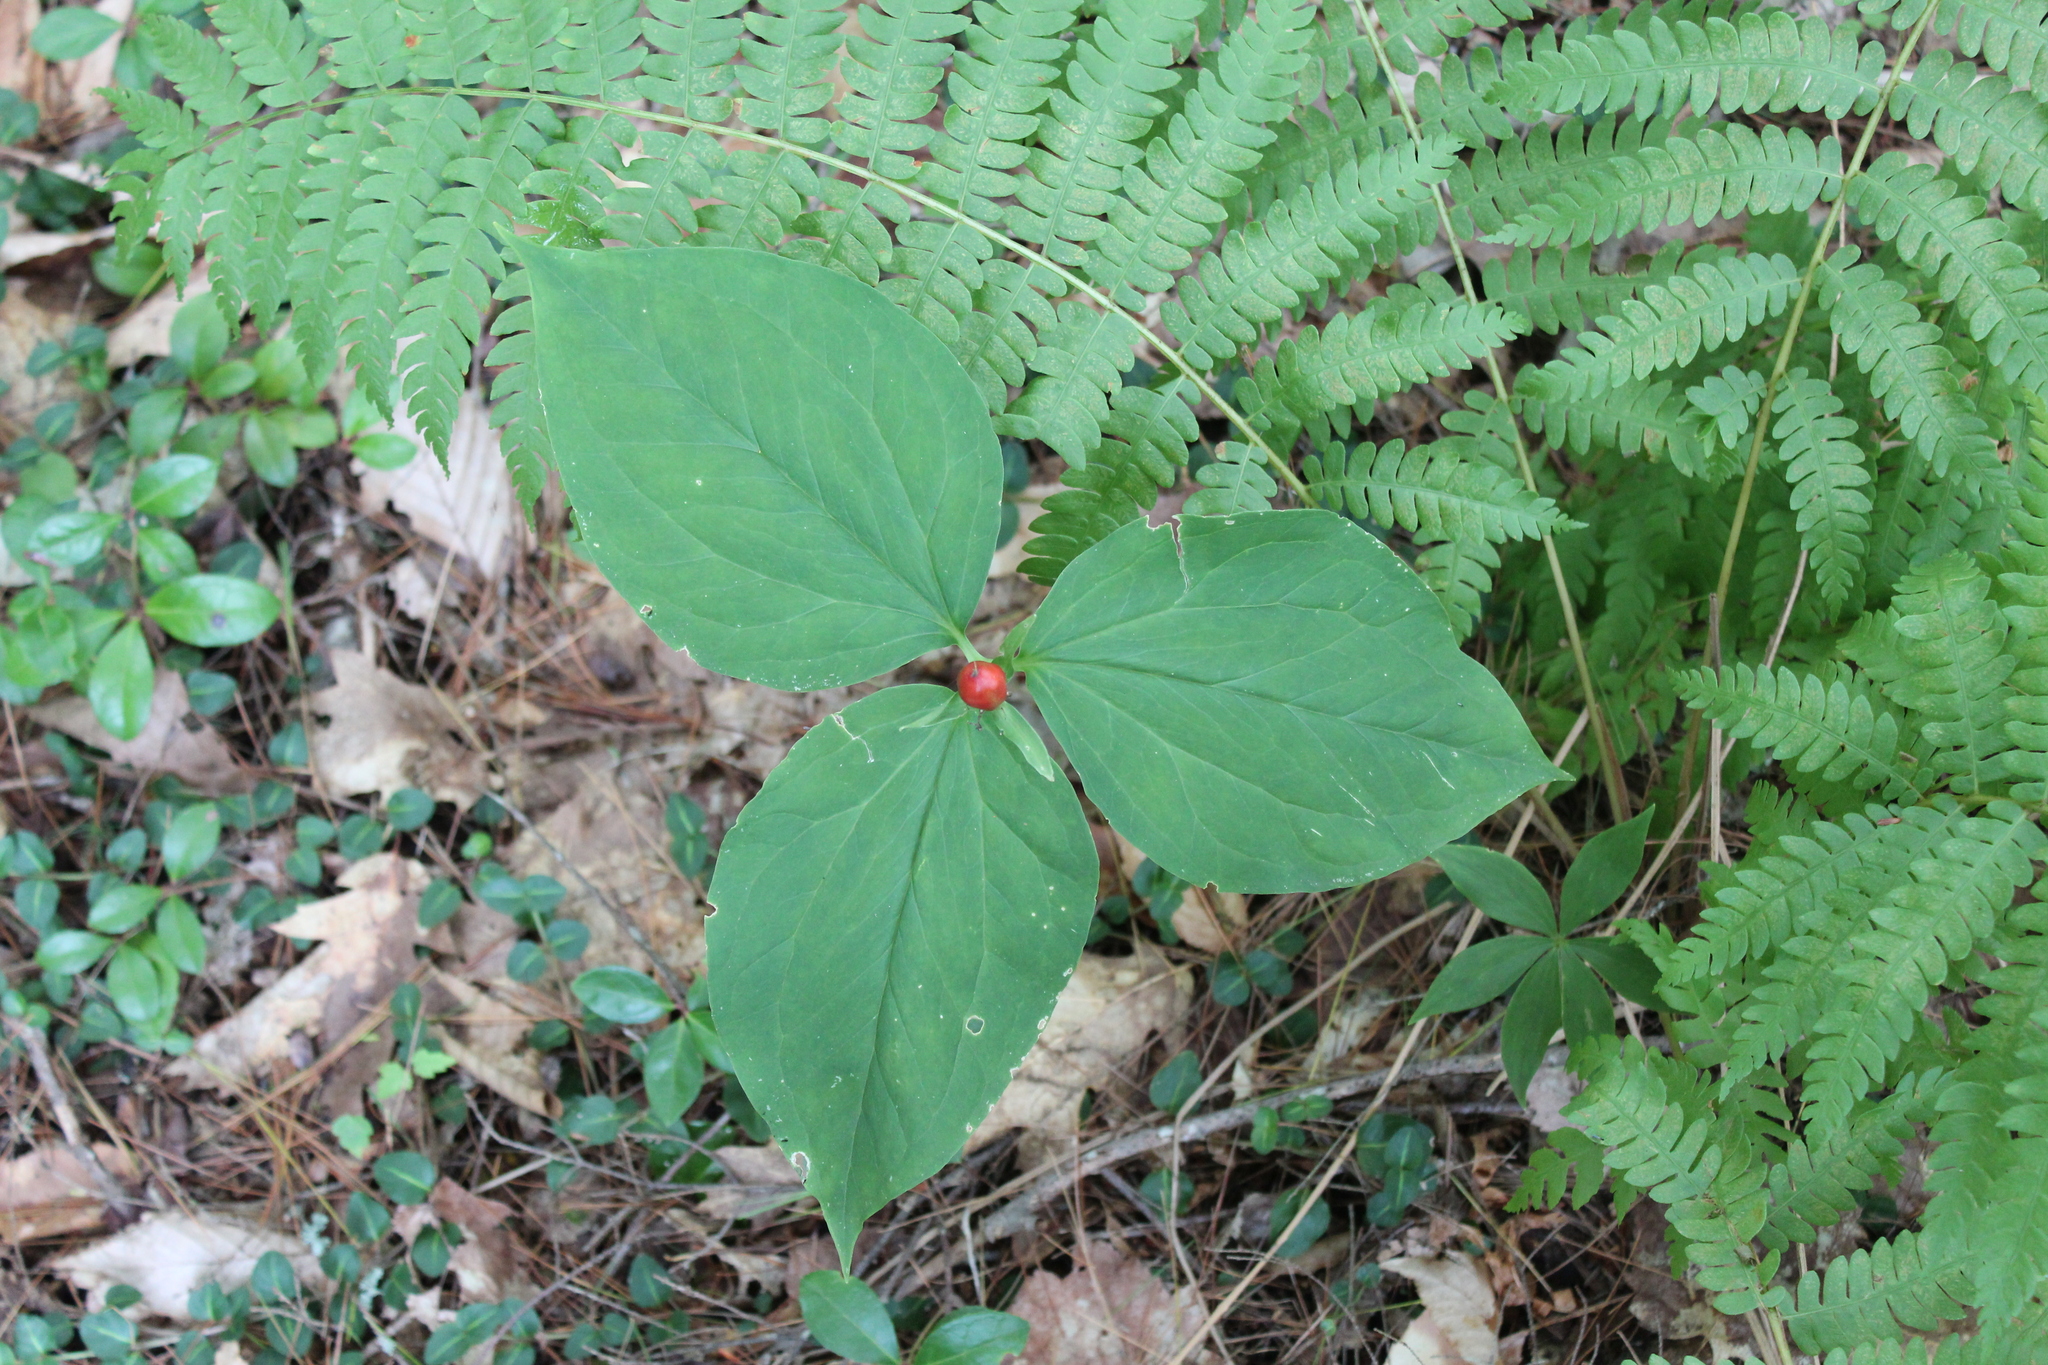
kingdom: Plantae
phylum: Tracheophyta
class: Liliopsida
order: Liliales
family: Melanthiaceae
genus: Trillium
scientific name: Trillium undulatum
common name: Paint trillium
